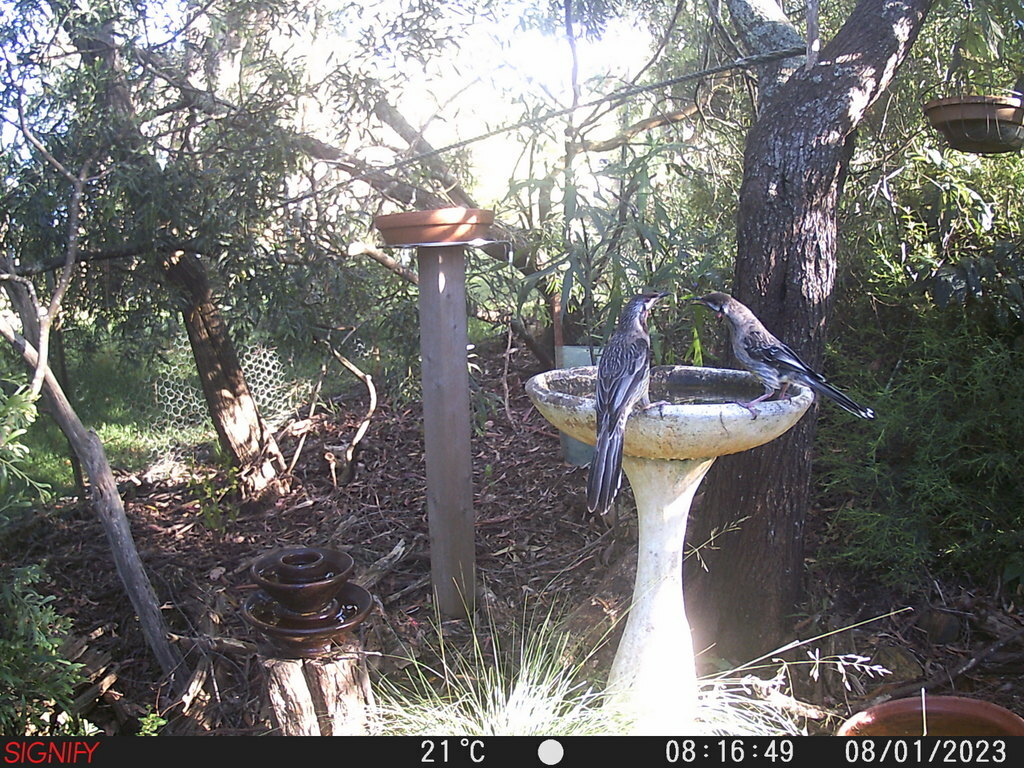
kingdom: Animalia
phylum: Chordata
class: Aves
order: Passeriformes
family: Meliphagidae
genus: Anthochaera
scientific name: Anthochaera carunculata
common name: Red wattlebird
